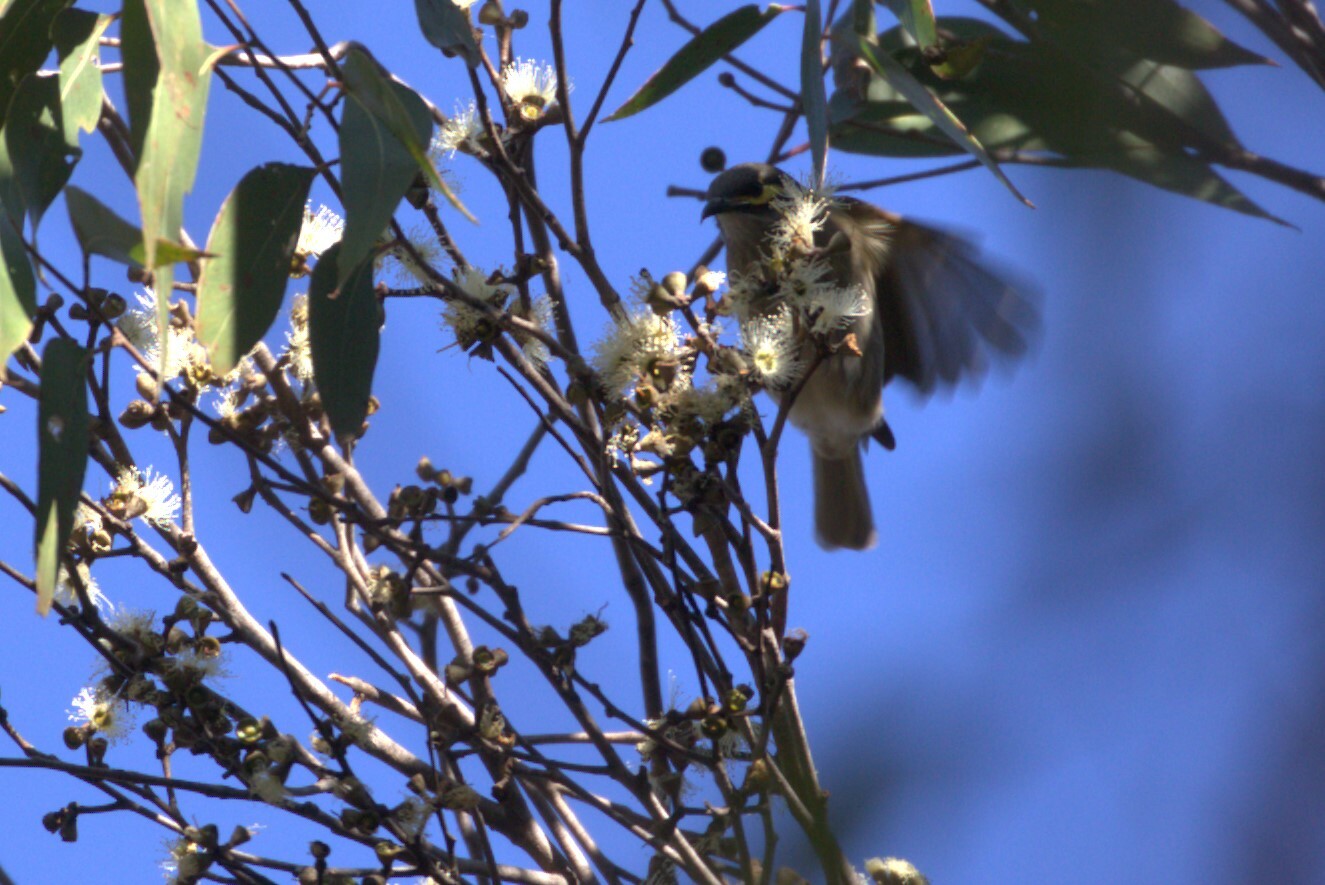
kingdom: Animalia
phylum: Chordata
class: Aves
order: Passeriformes
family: Meliphagidae
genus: Caligavis
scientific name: Caligavis chrysops
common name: Yellow-faced honeyeater
